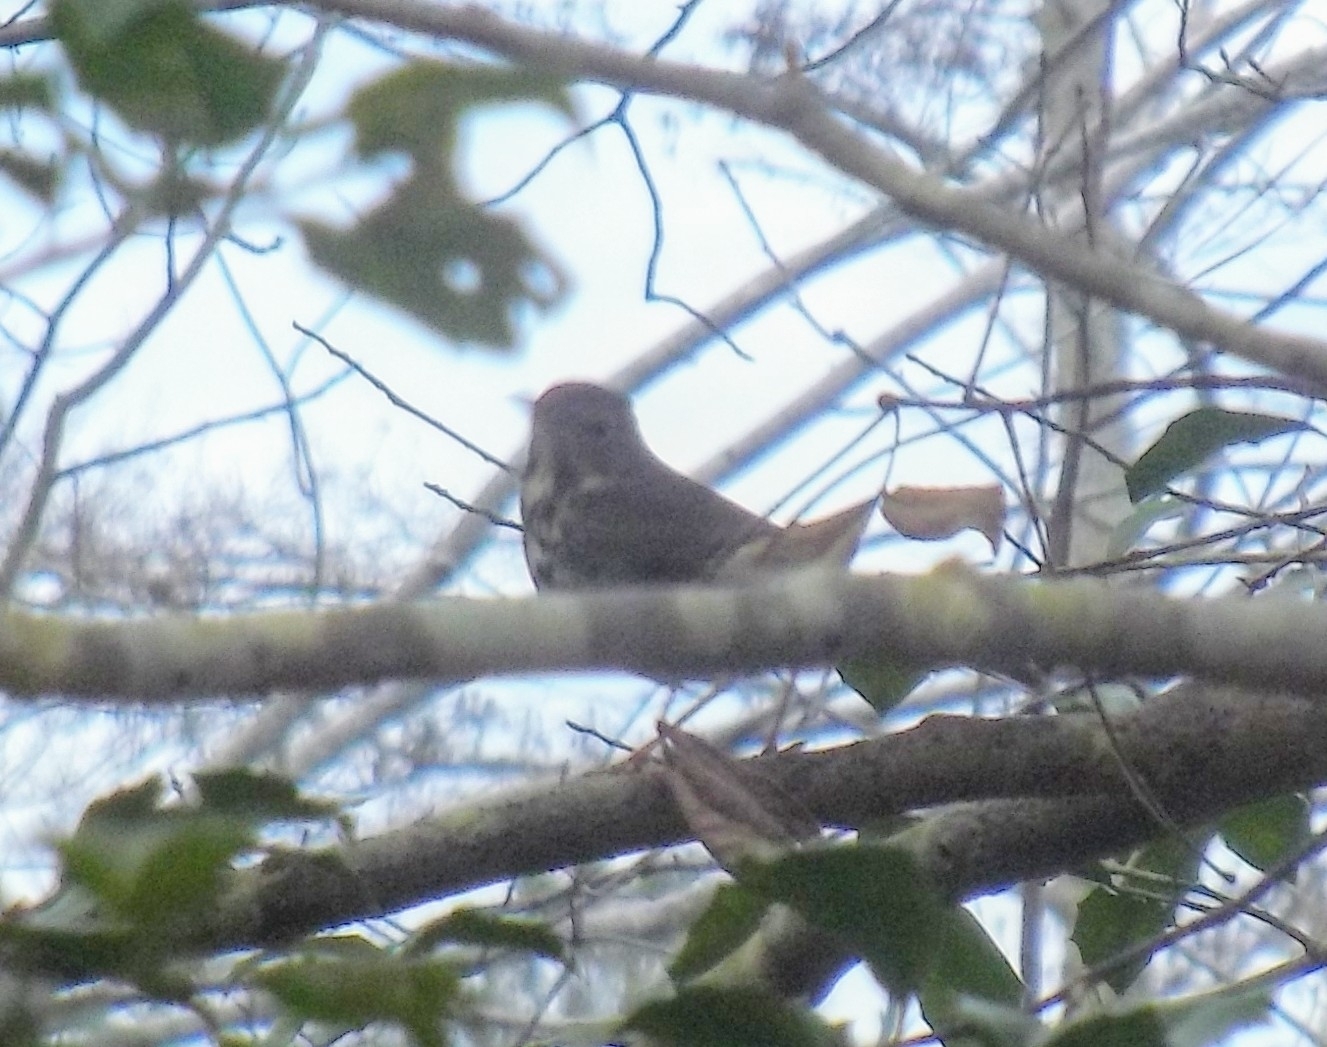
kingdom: Animalia
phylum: Chordata
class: Aves
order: Passeriformes
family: Turdidae
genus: Catharus
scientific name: Catharus guttatus
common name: Hermit thrush
